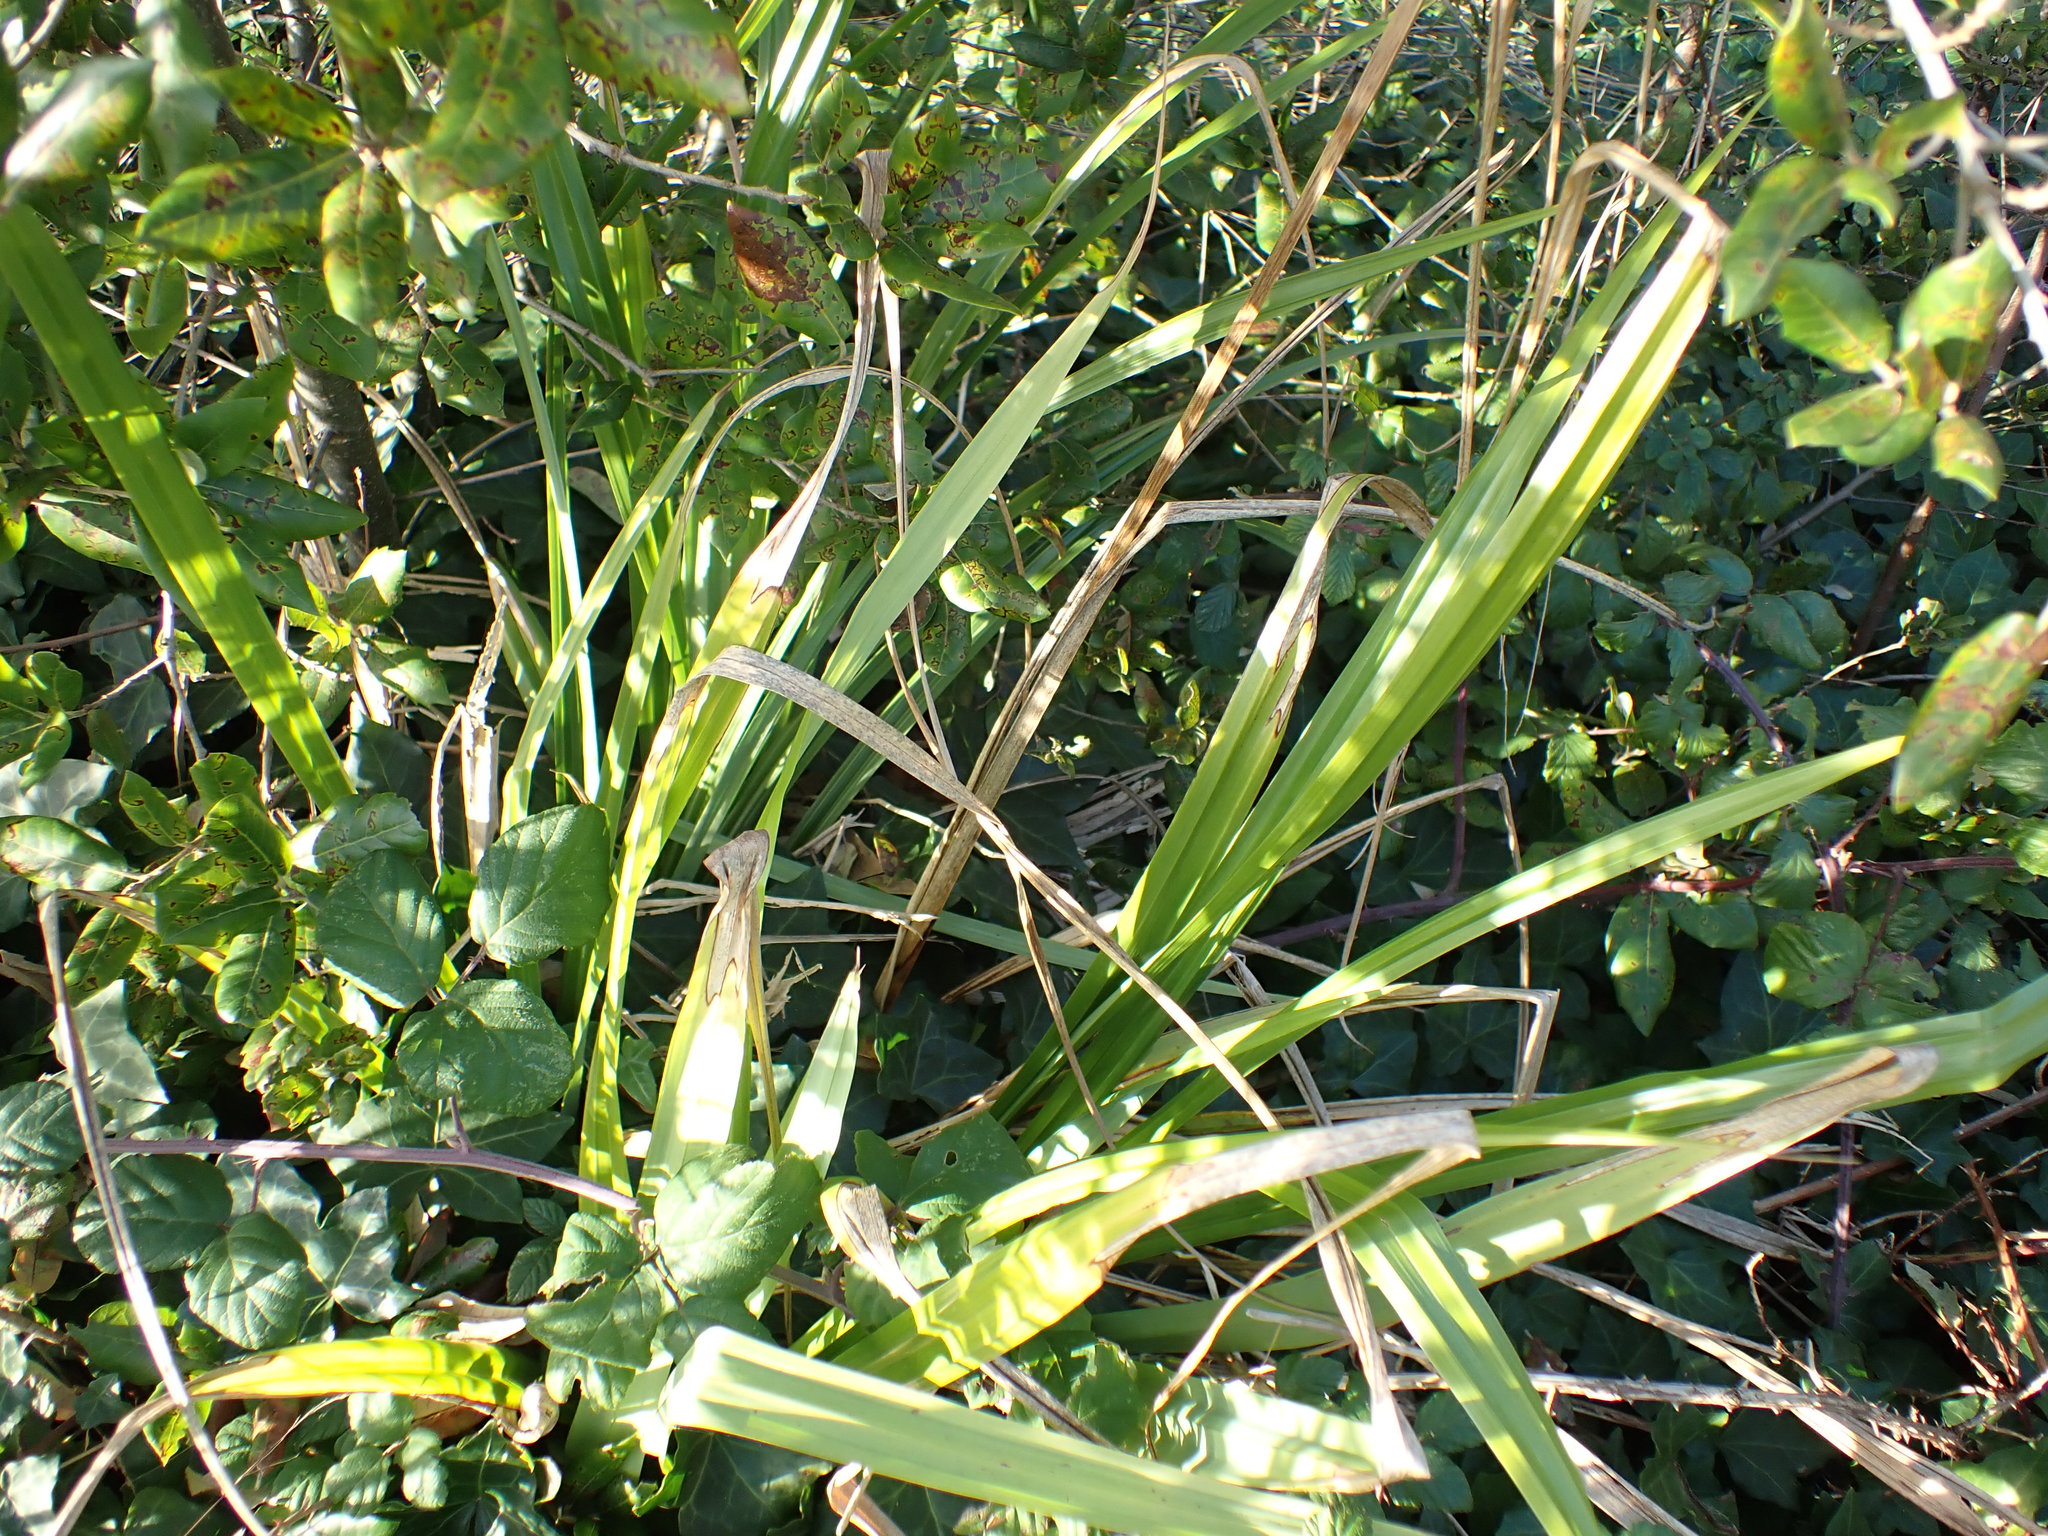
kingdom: Plantae
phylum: Tracheophyta
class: Liliopsida
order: Poales
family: Cyperaceae
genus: Carex
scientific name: Carex pendula
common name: Pendulous sedge
